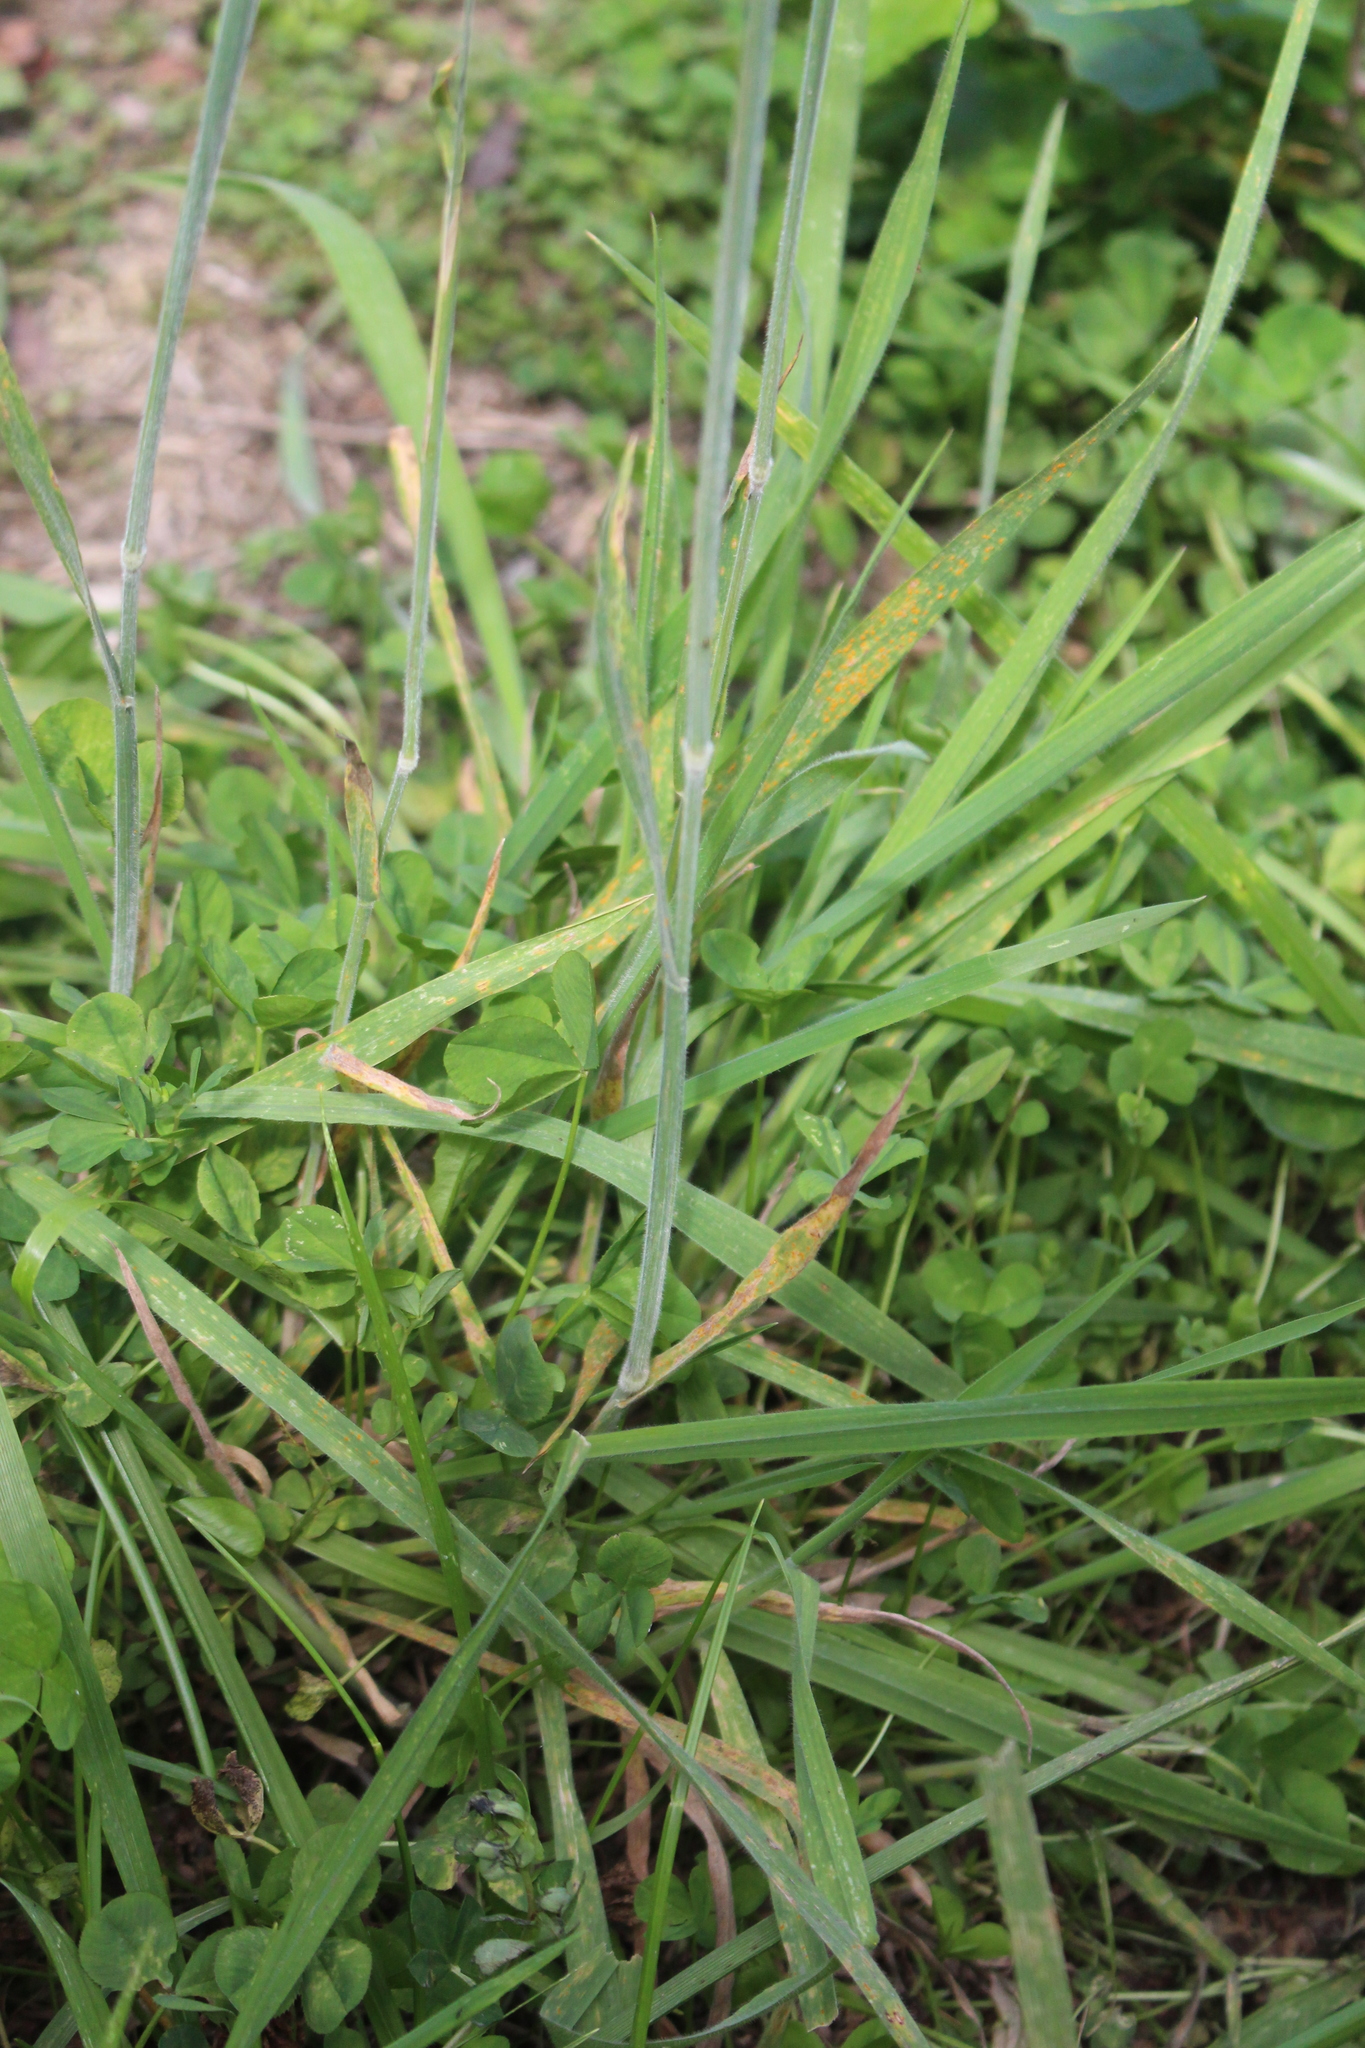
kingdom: Plantae
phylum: Tracheophyta
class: Liliopsida
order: Poales
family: Poaceae
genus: Holcus
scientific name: Holcus lanatus
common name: Yorkshire-fog
